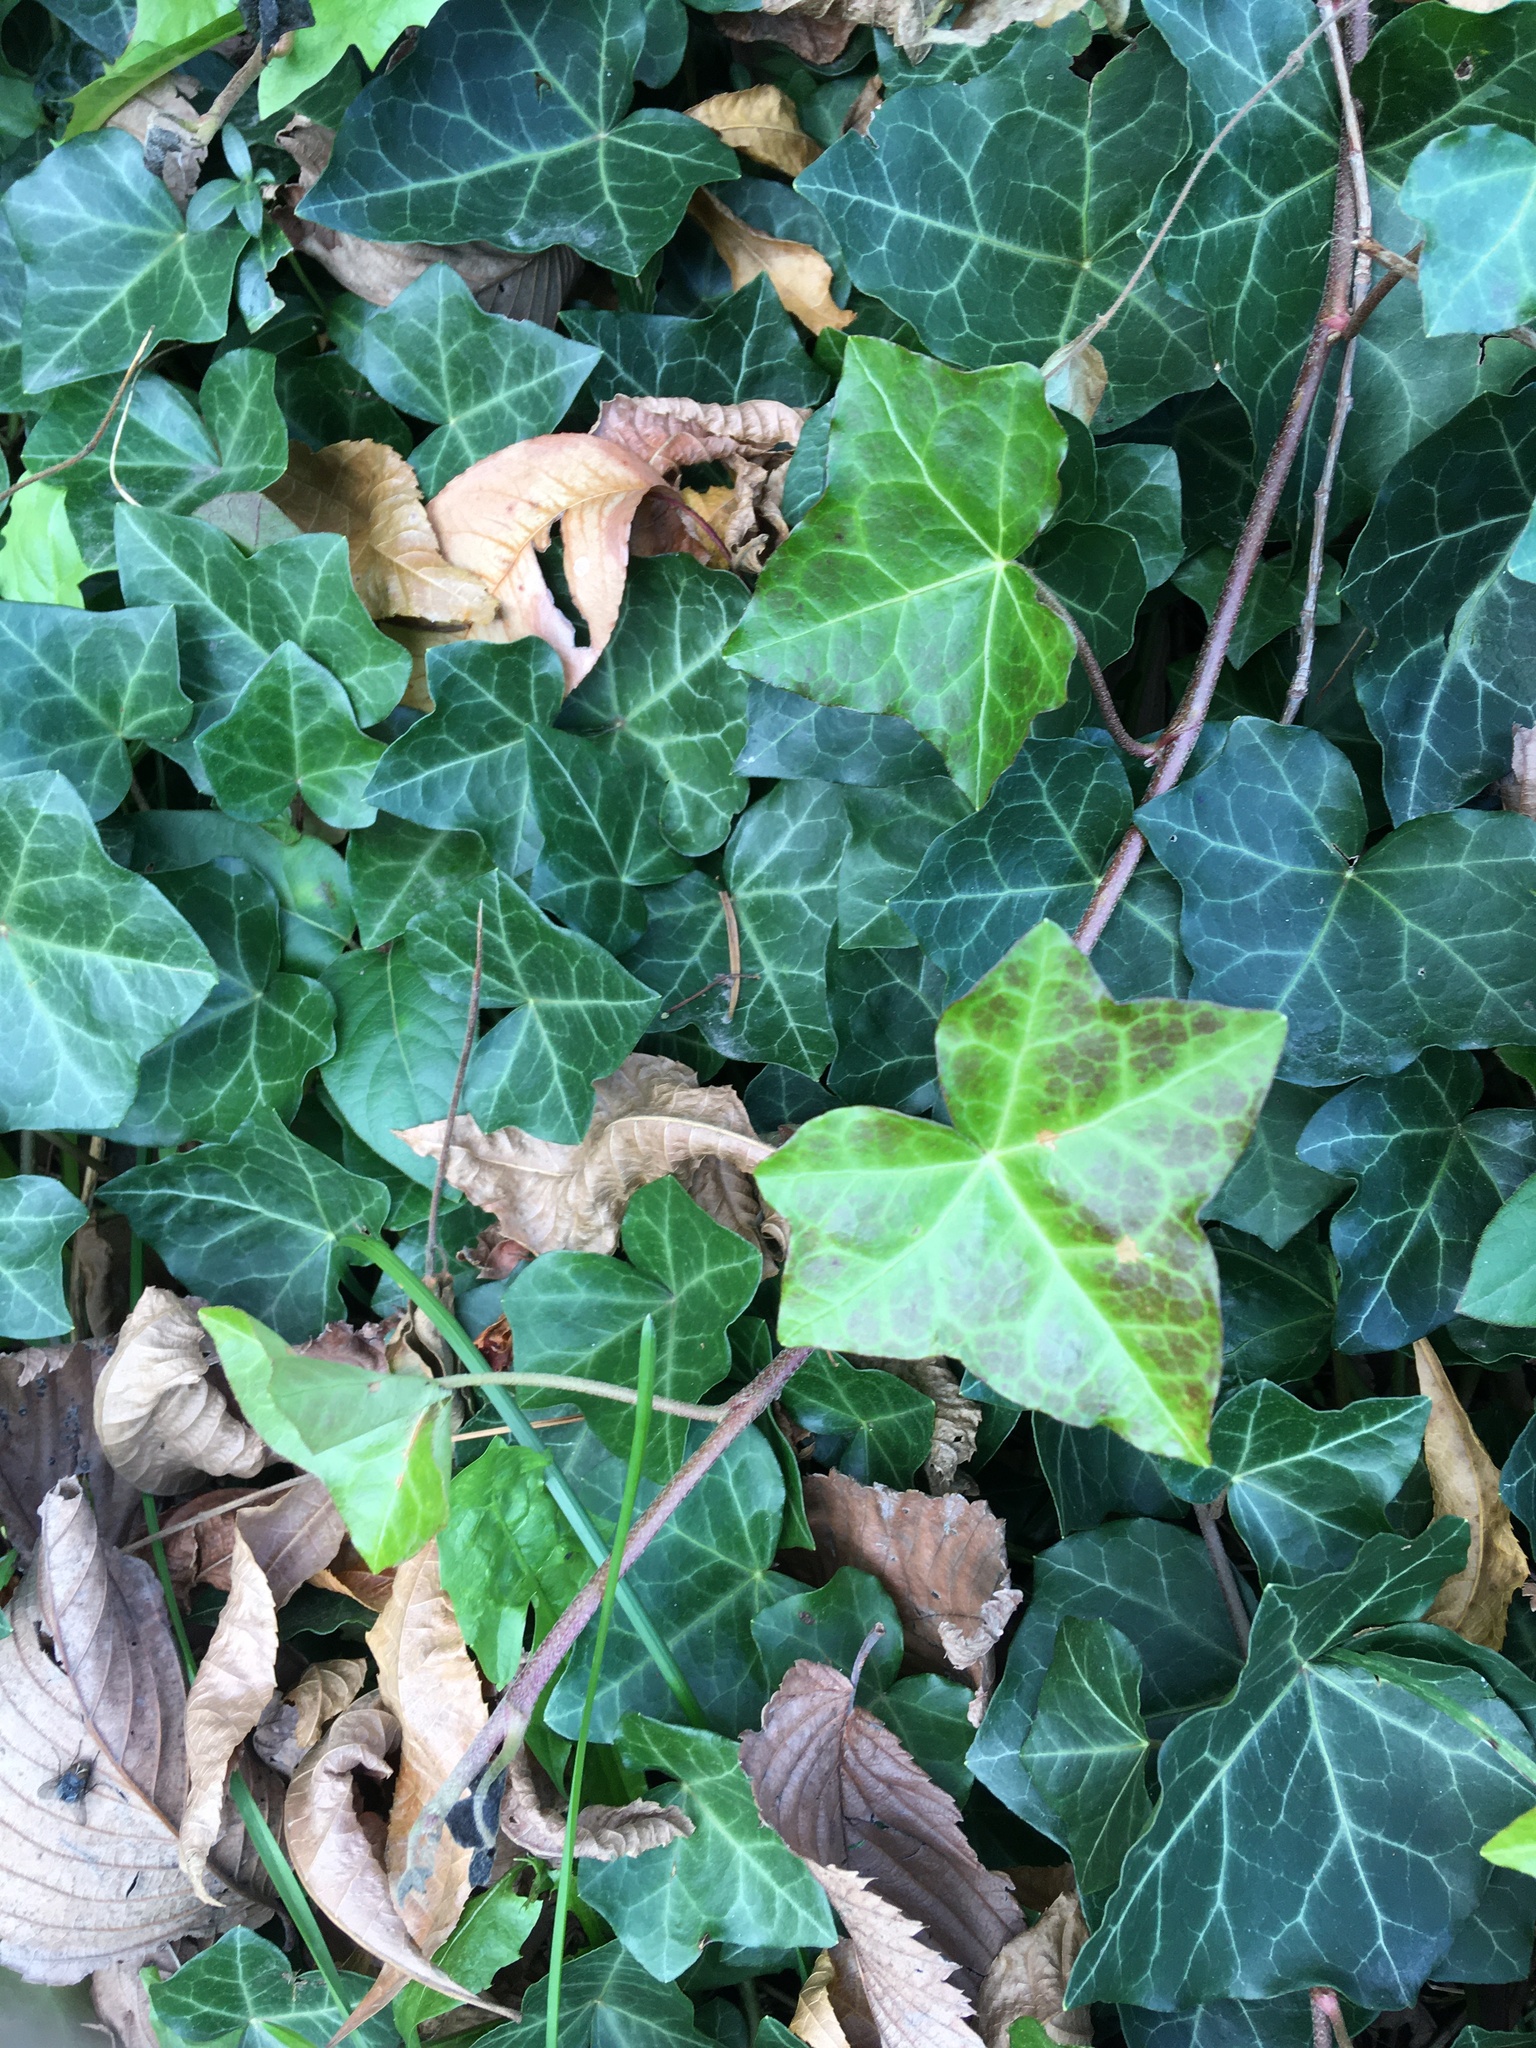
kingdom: Plantae
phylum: Tracheophyta
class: Magnoliopsida
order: Apiales
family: Araliaceae
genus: Hedera
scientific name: Hedera helix
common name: Ivy
